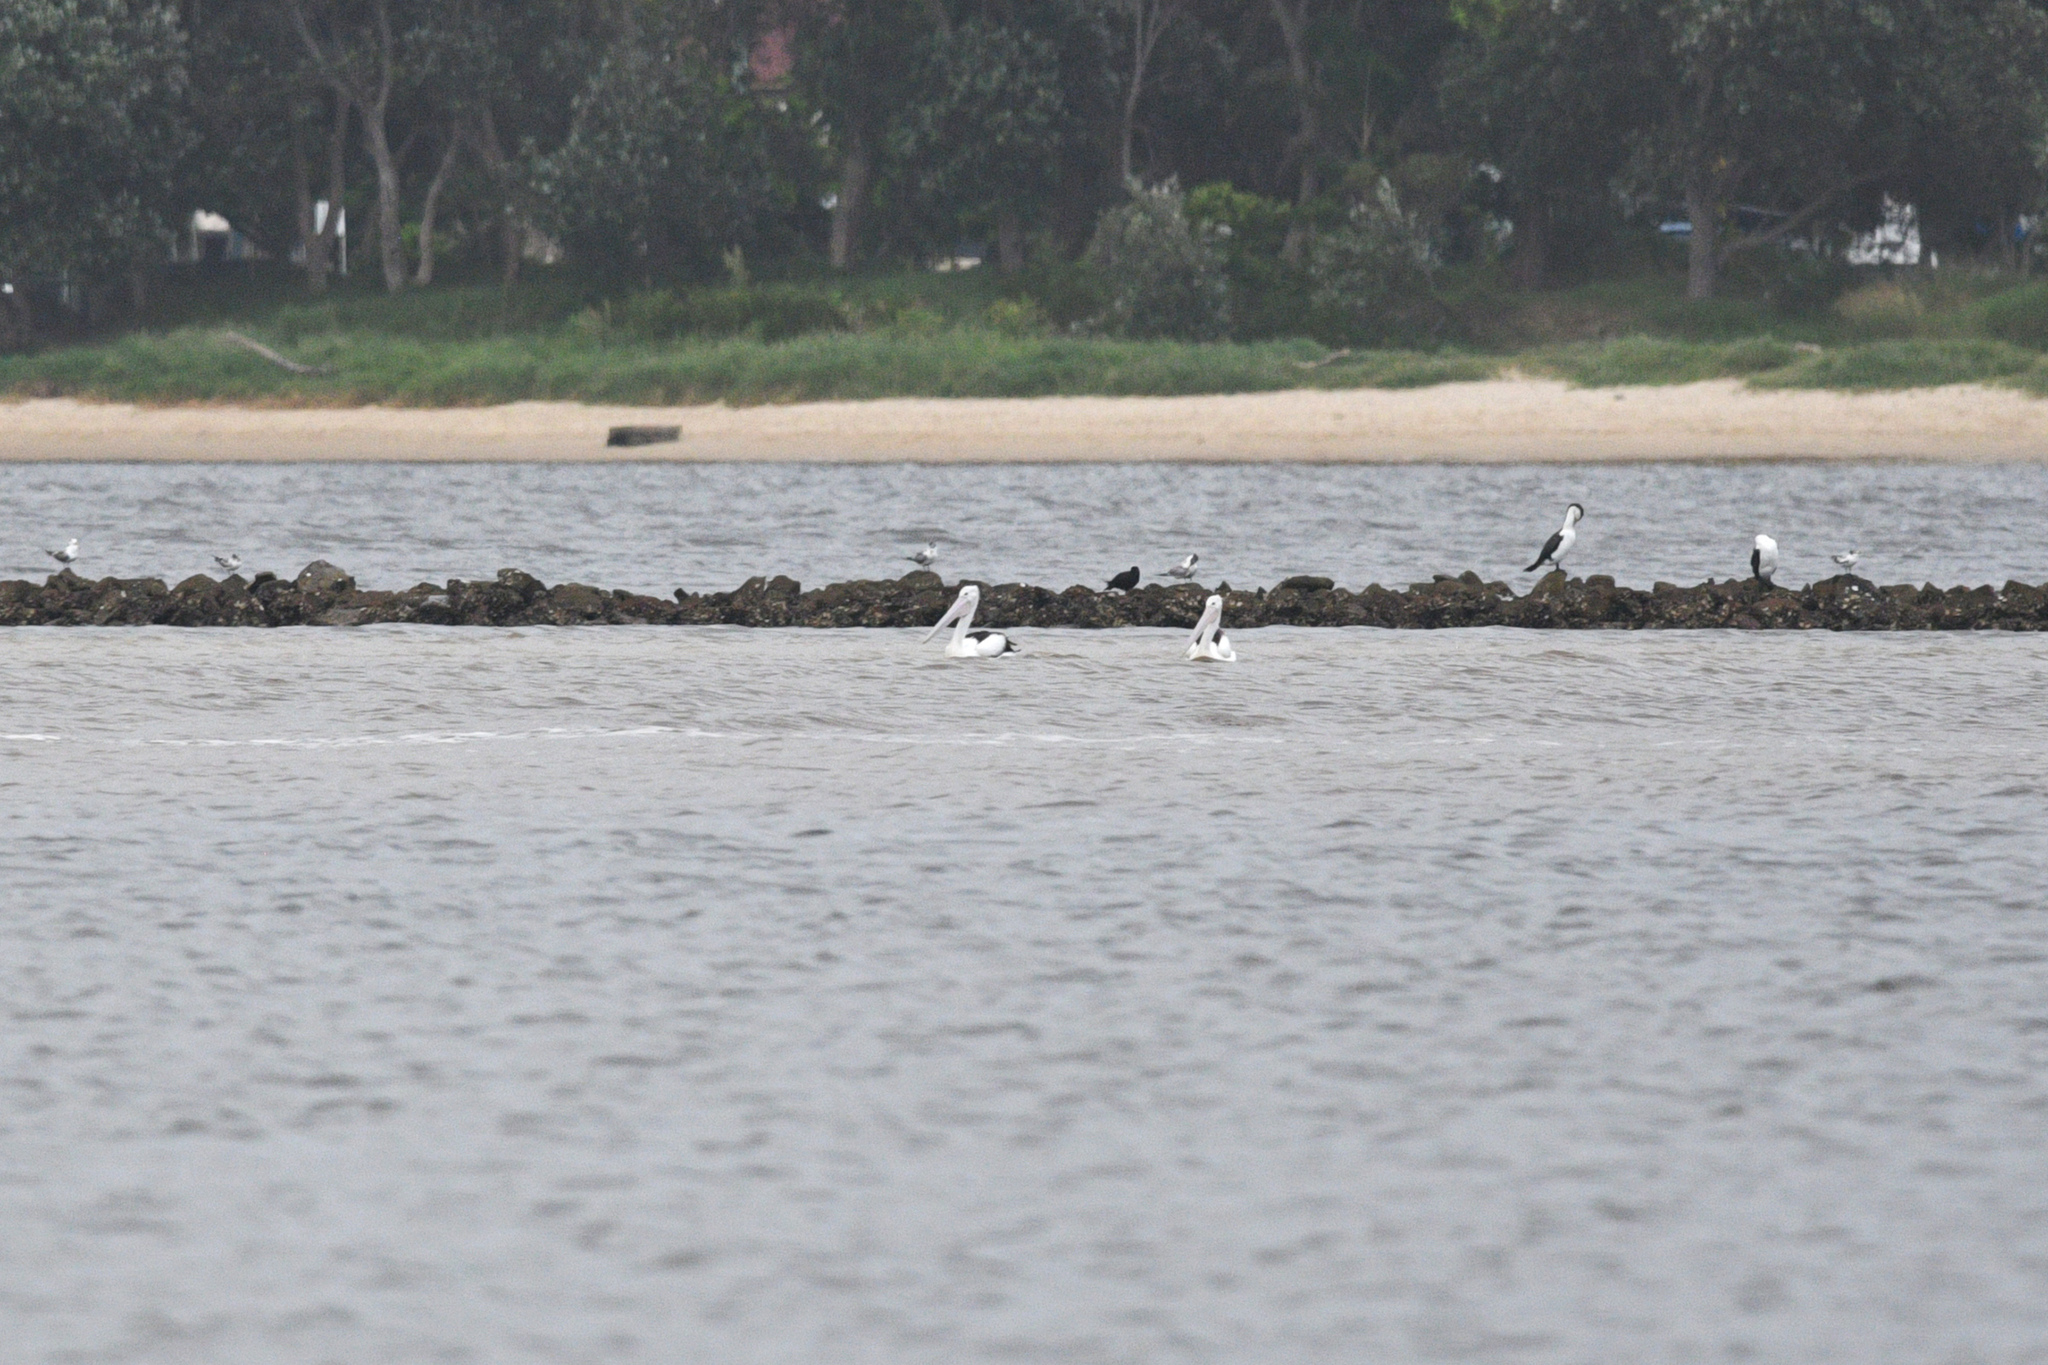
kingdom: Animalia
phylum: Chordata
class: Aves
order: Pelecaniformes
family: Pelecanidae
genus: Pelecanus
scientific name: Pelecanus conspicillatus
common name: Australian pelican
